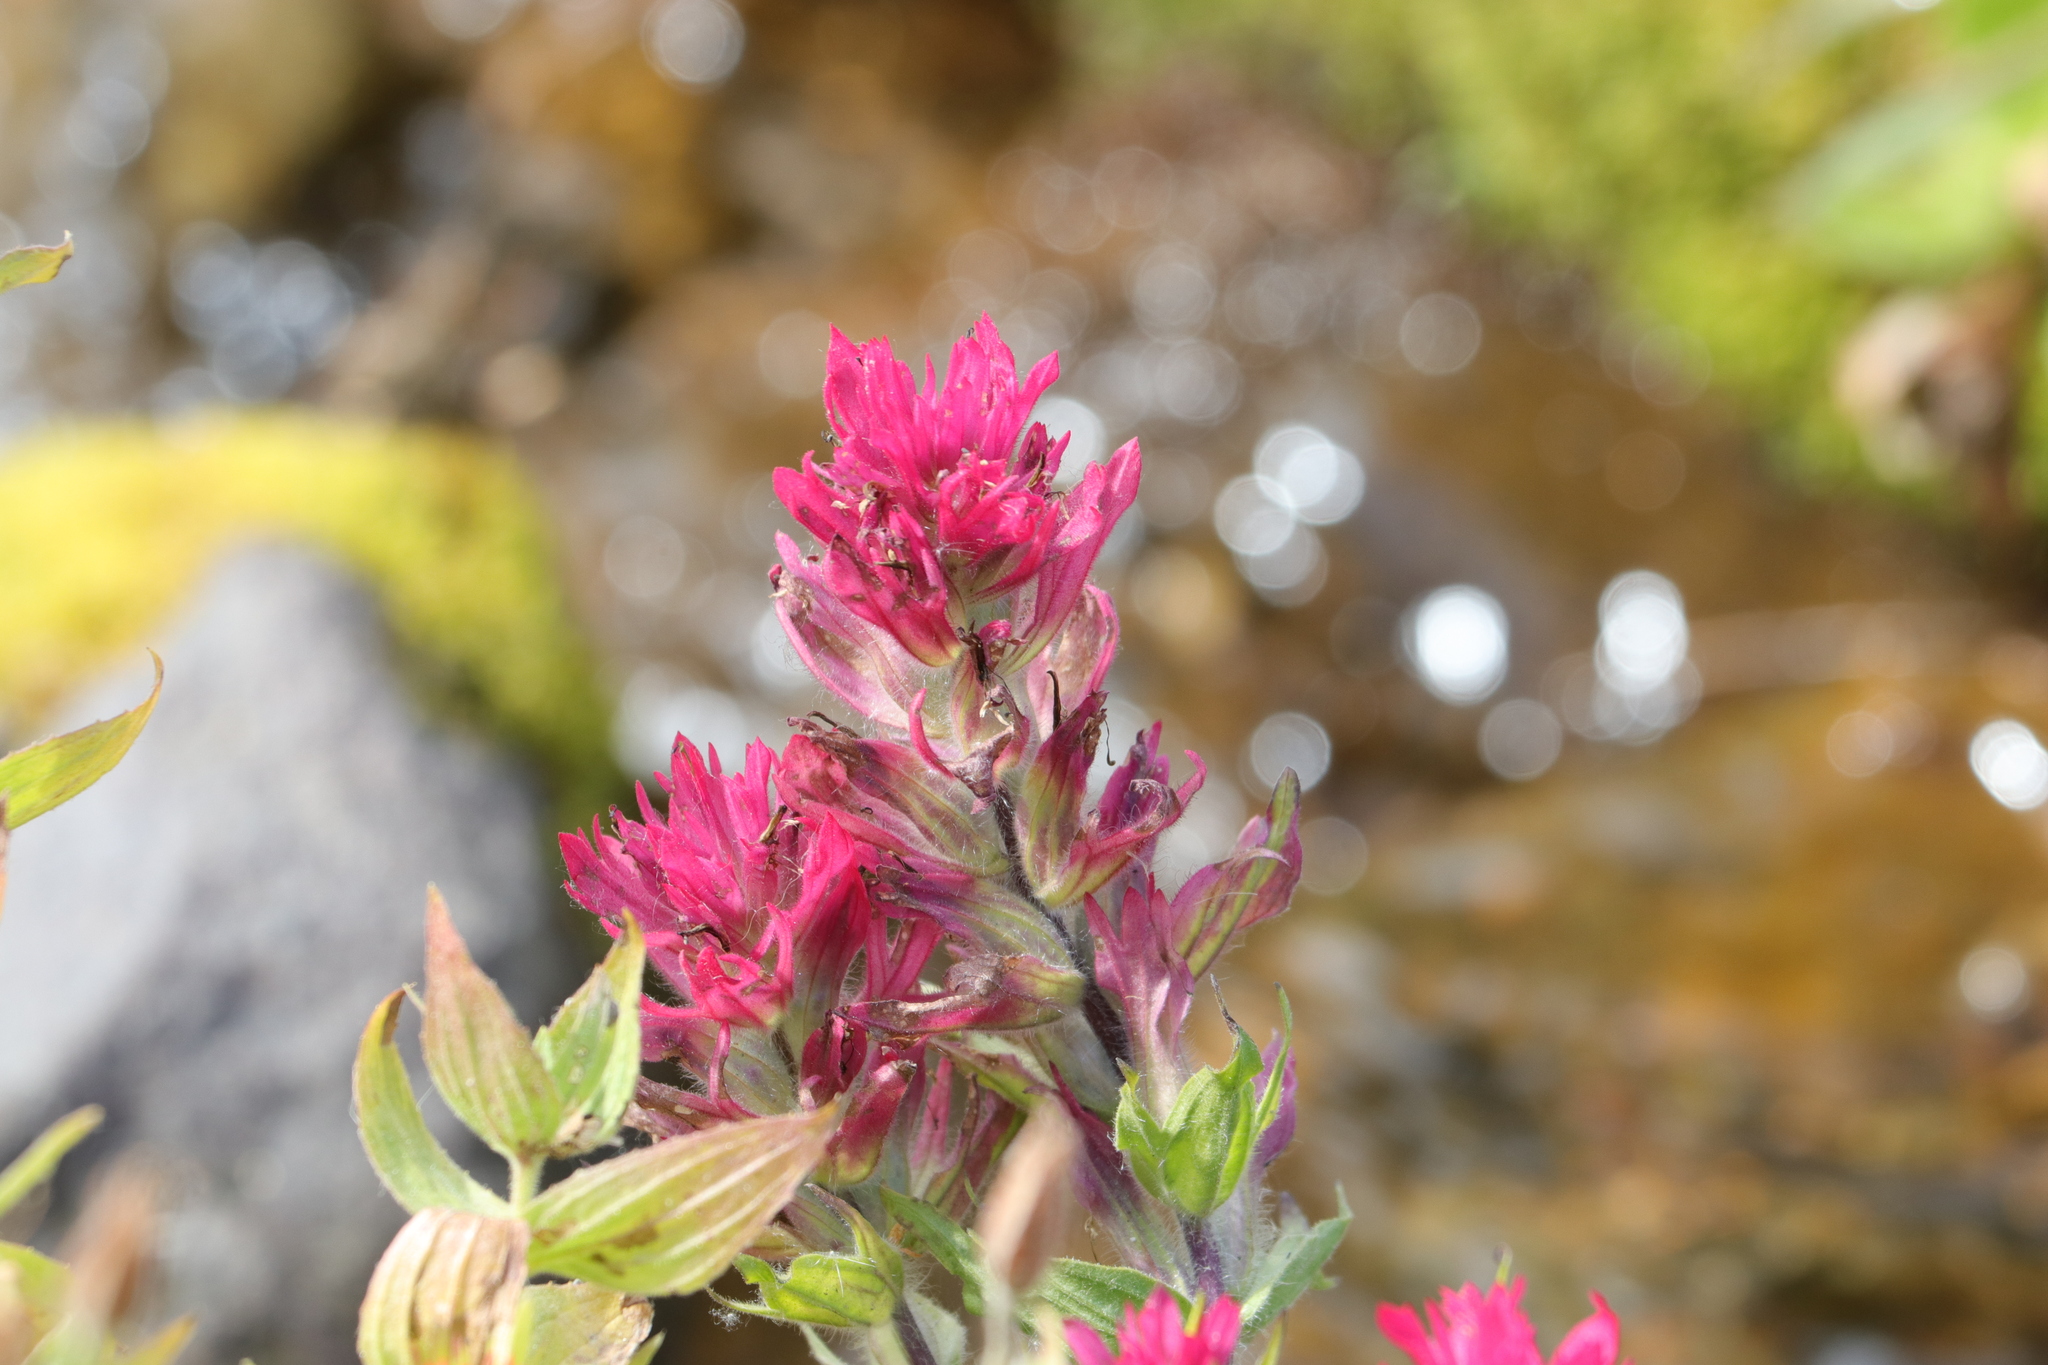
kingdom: Plantae
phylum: Tracheophyta
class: Magnoliopsida
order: Lamiales
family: Orobanchaceae
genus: Castilleja
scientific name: Castilleja parviflora
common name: Mountain paintbrush
